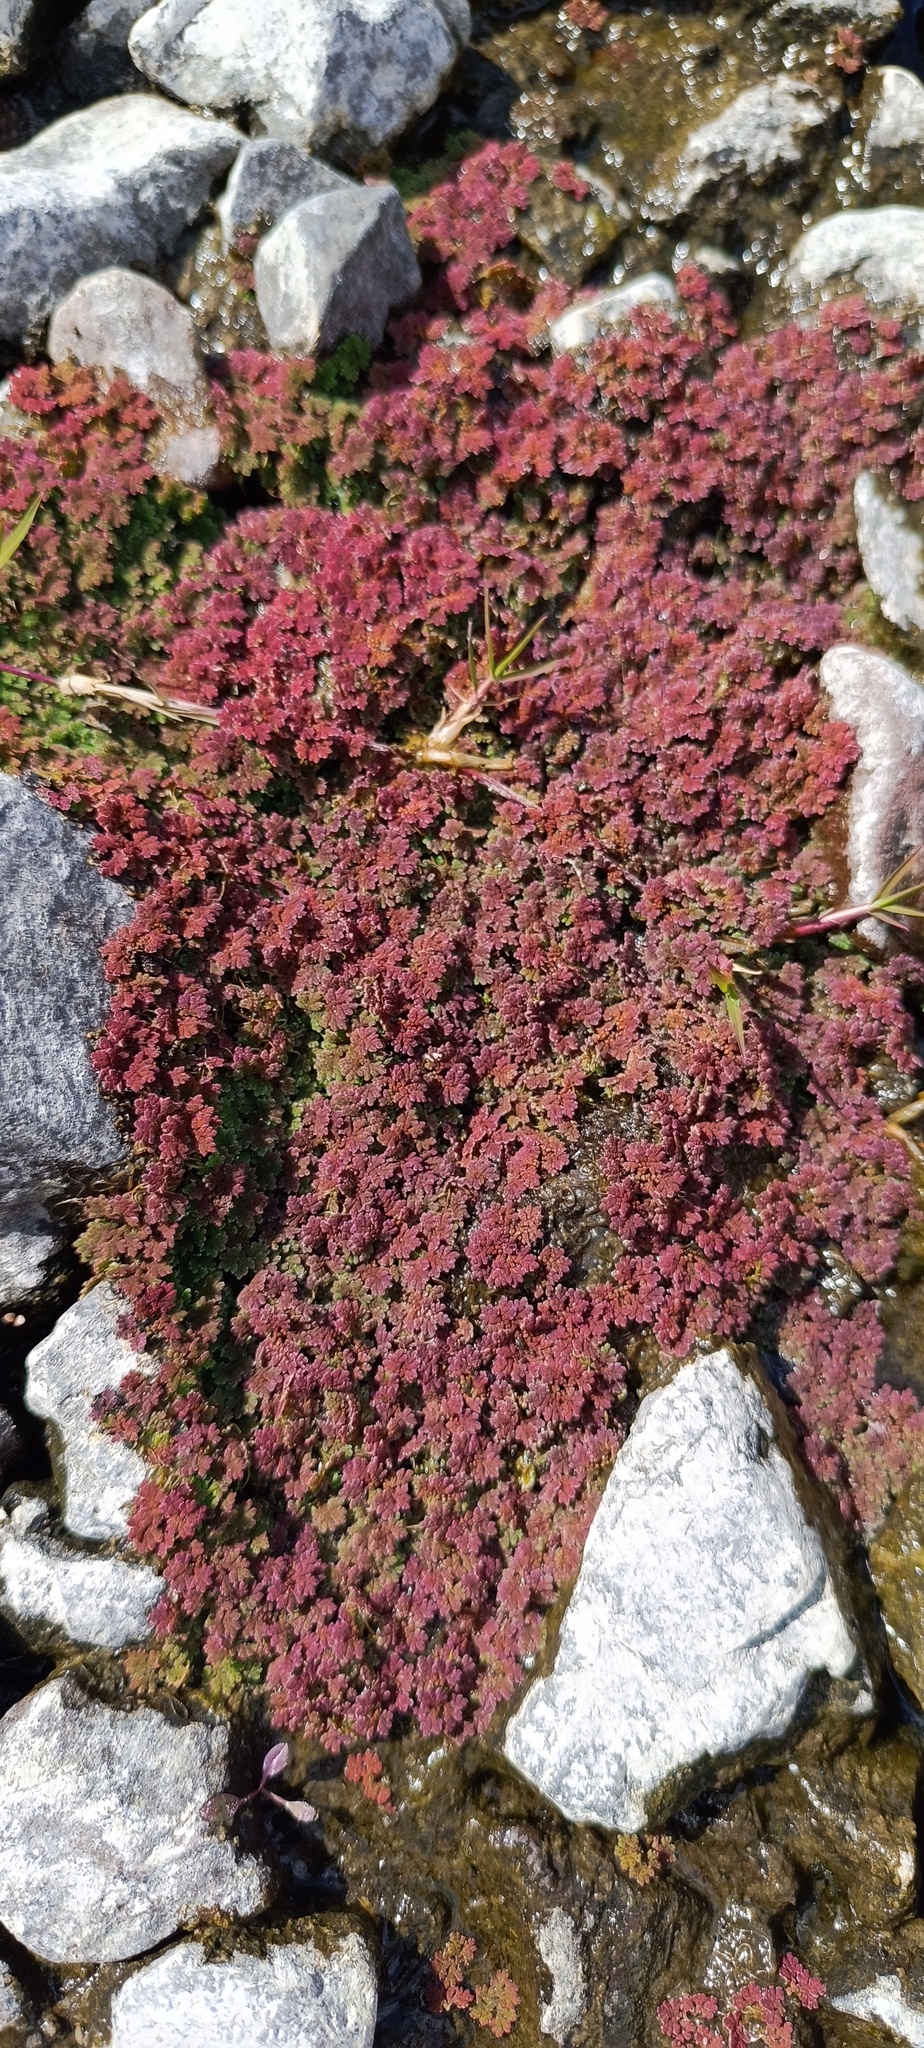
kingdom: Plantae
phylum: Tracheophyta
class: Polypodiopsida
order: Salviniales
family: Salviniaceae
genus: Azolla
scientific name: Azolla filiculoides
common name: Water fern
